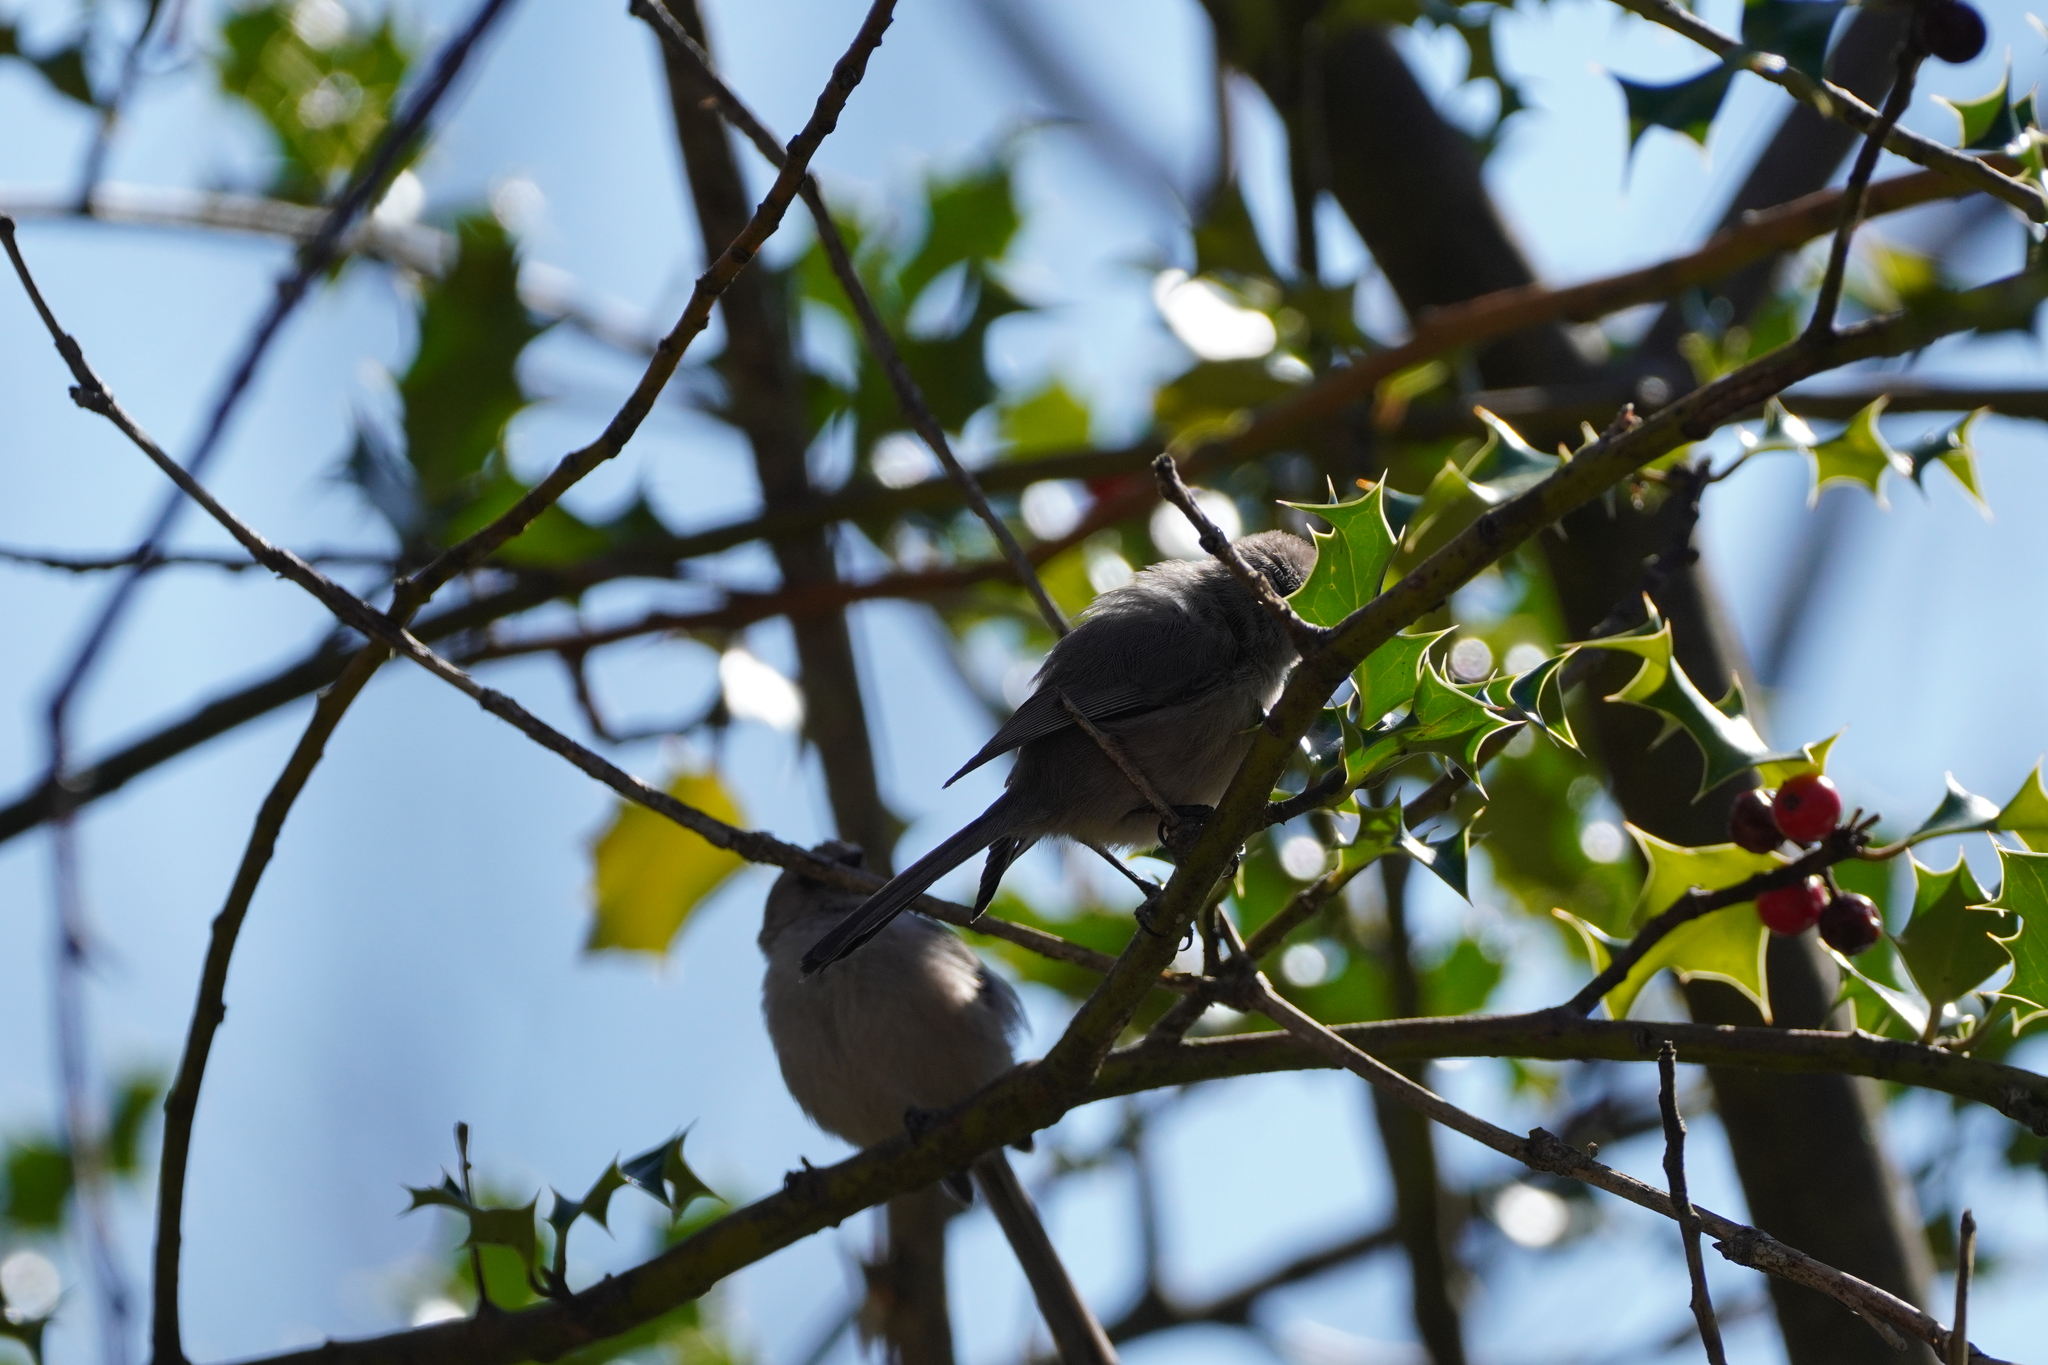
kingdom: Animalia
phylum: Chordata
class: Aves
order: Passeriformes
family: Aegithalidae
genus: Psaltriparus
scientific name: Psaltriparus minimus
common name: American bushtit
